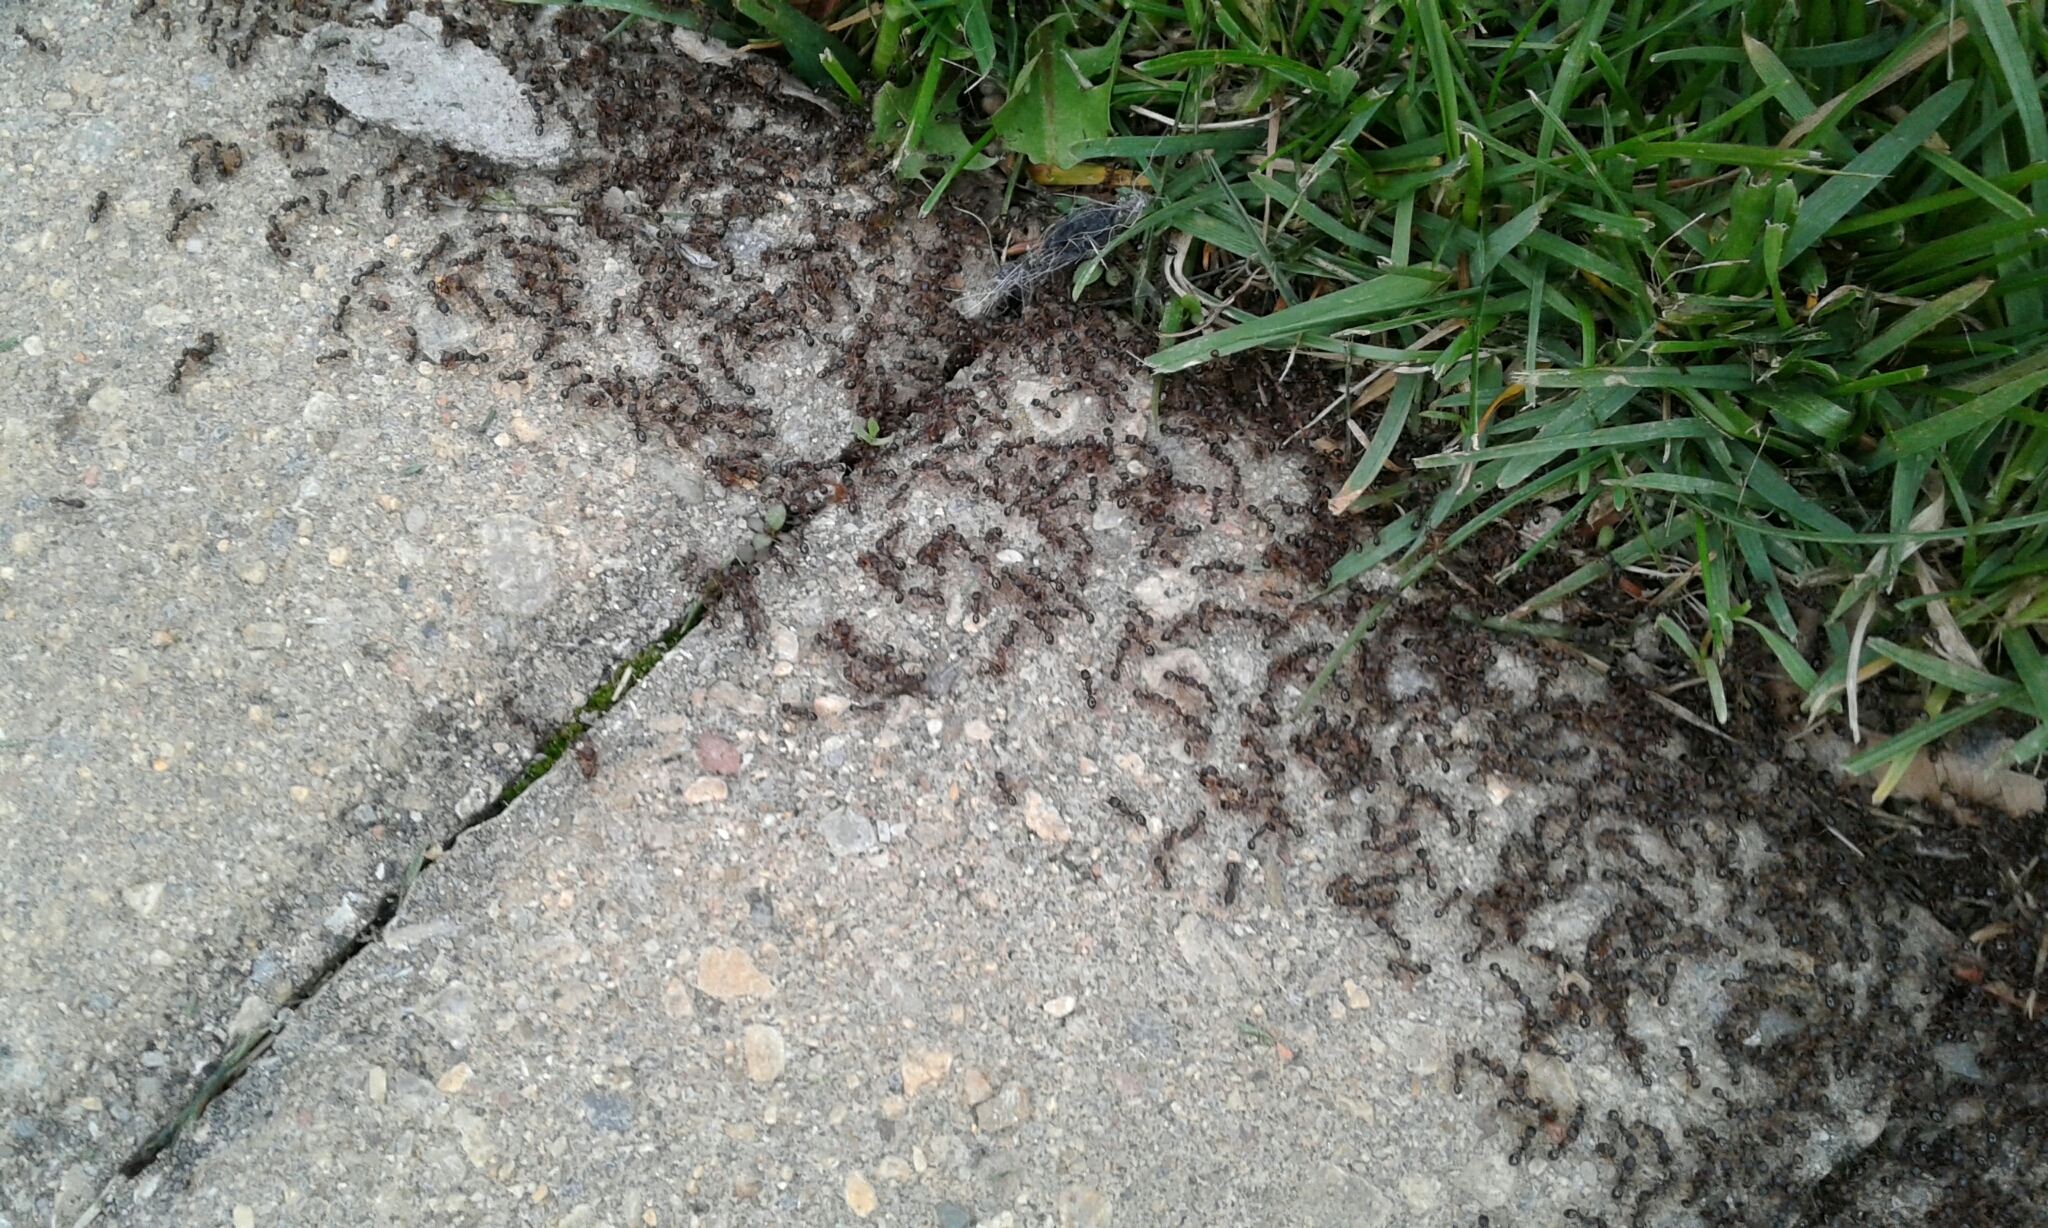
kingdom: Animalia
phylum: Arthropoda
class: Insecta
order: Hymenoptera
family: Formicidae
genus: Tetramorium
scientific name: Tetramorium immigrans
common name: Pavement ant
